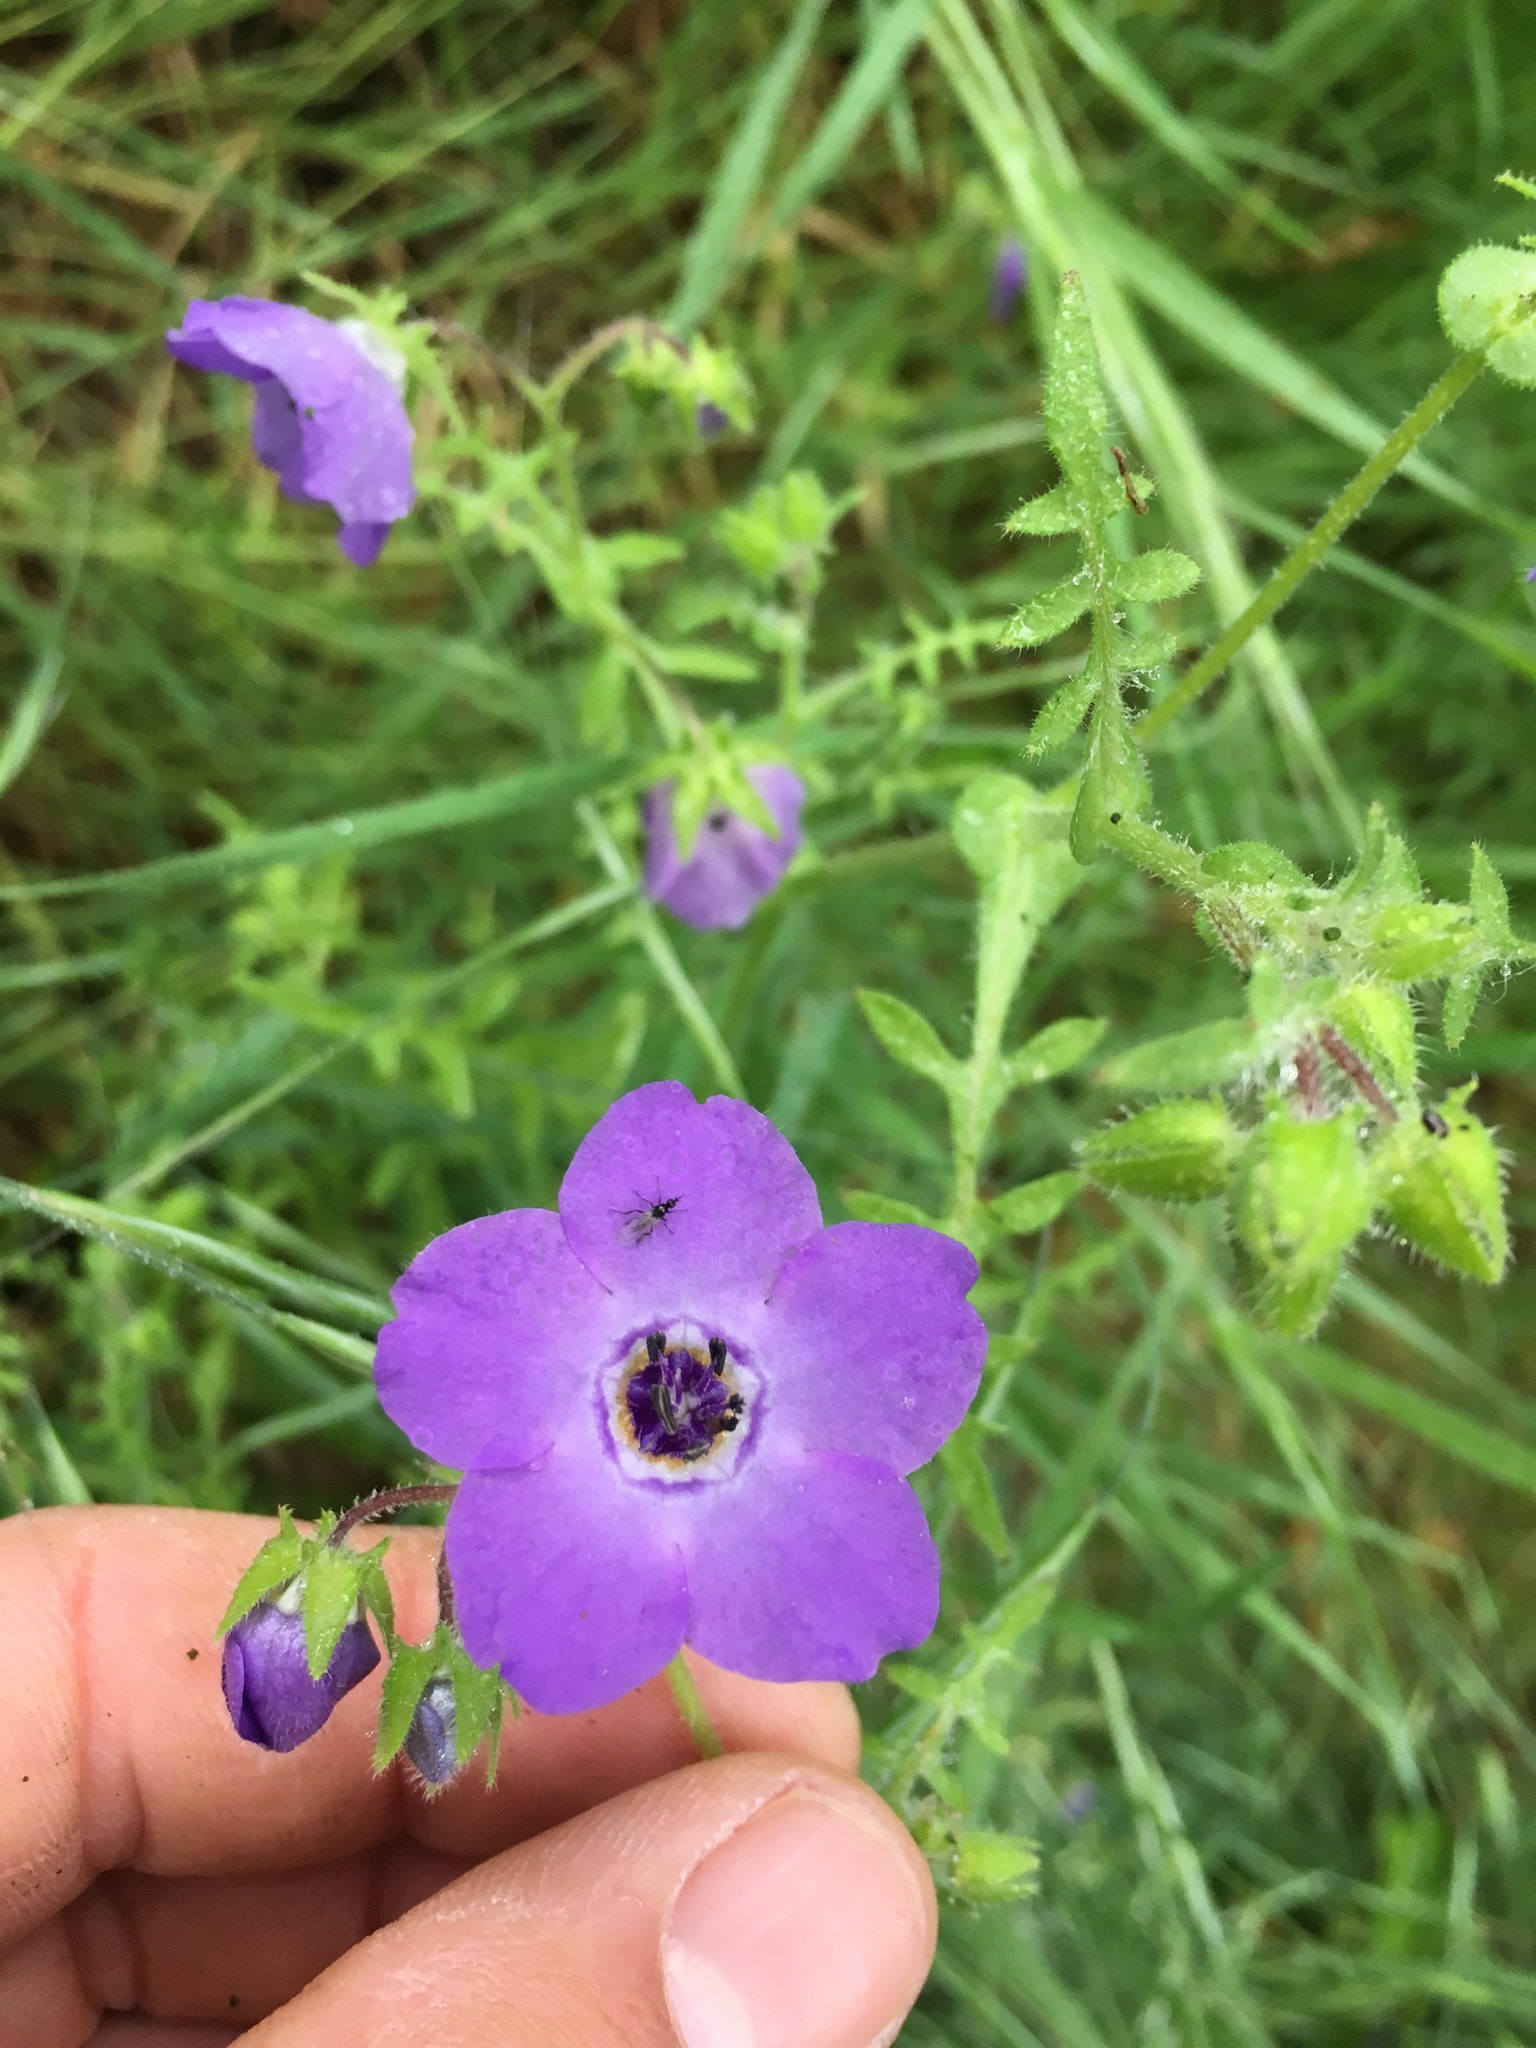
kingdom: Plantae
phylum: Tracheophyta
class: Magnoliopsida
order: Boraginales
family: Hydrophyllaceae
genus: Pholistoma
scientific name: Pholistoma auritum
